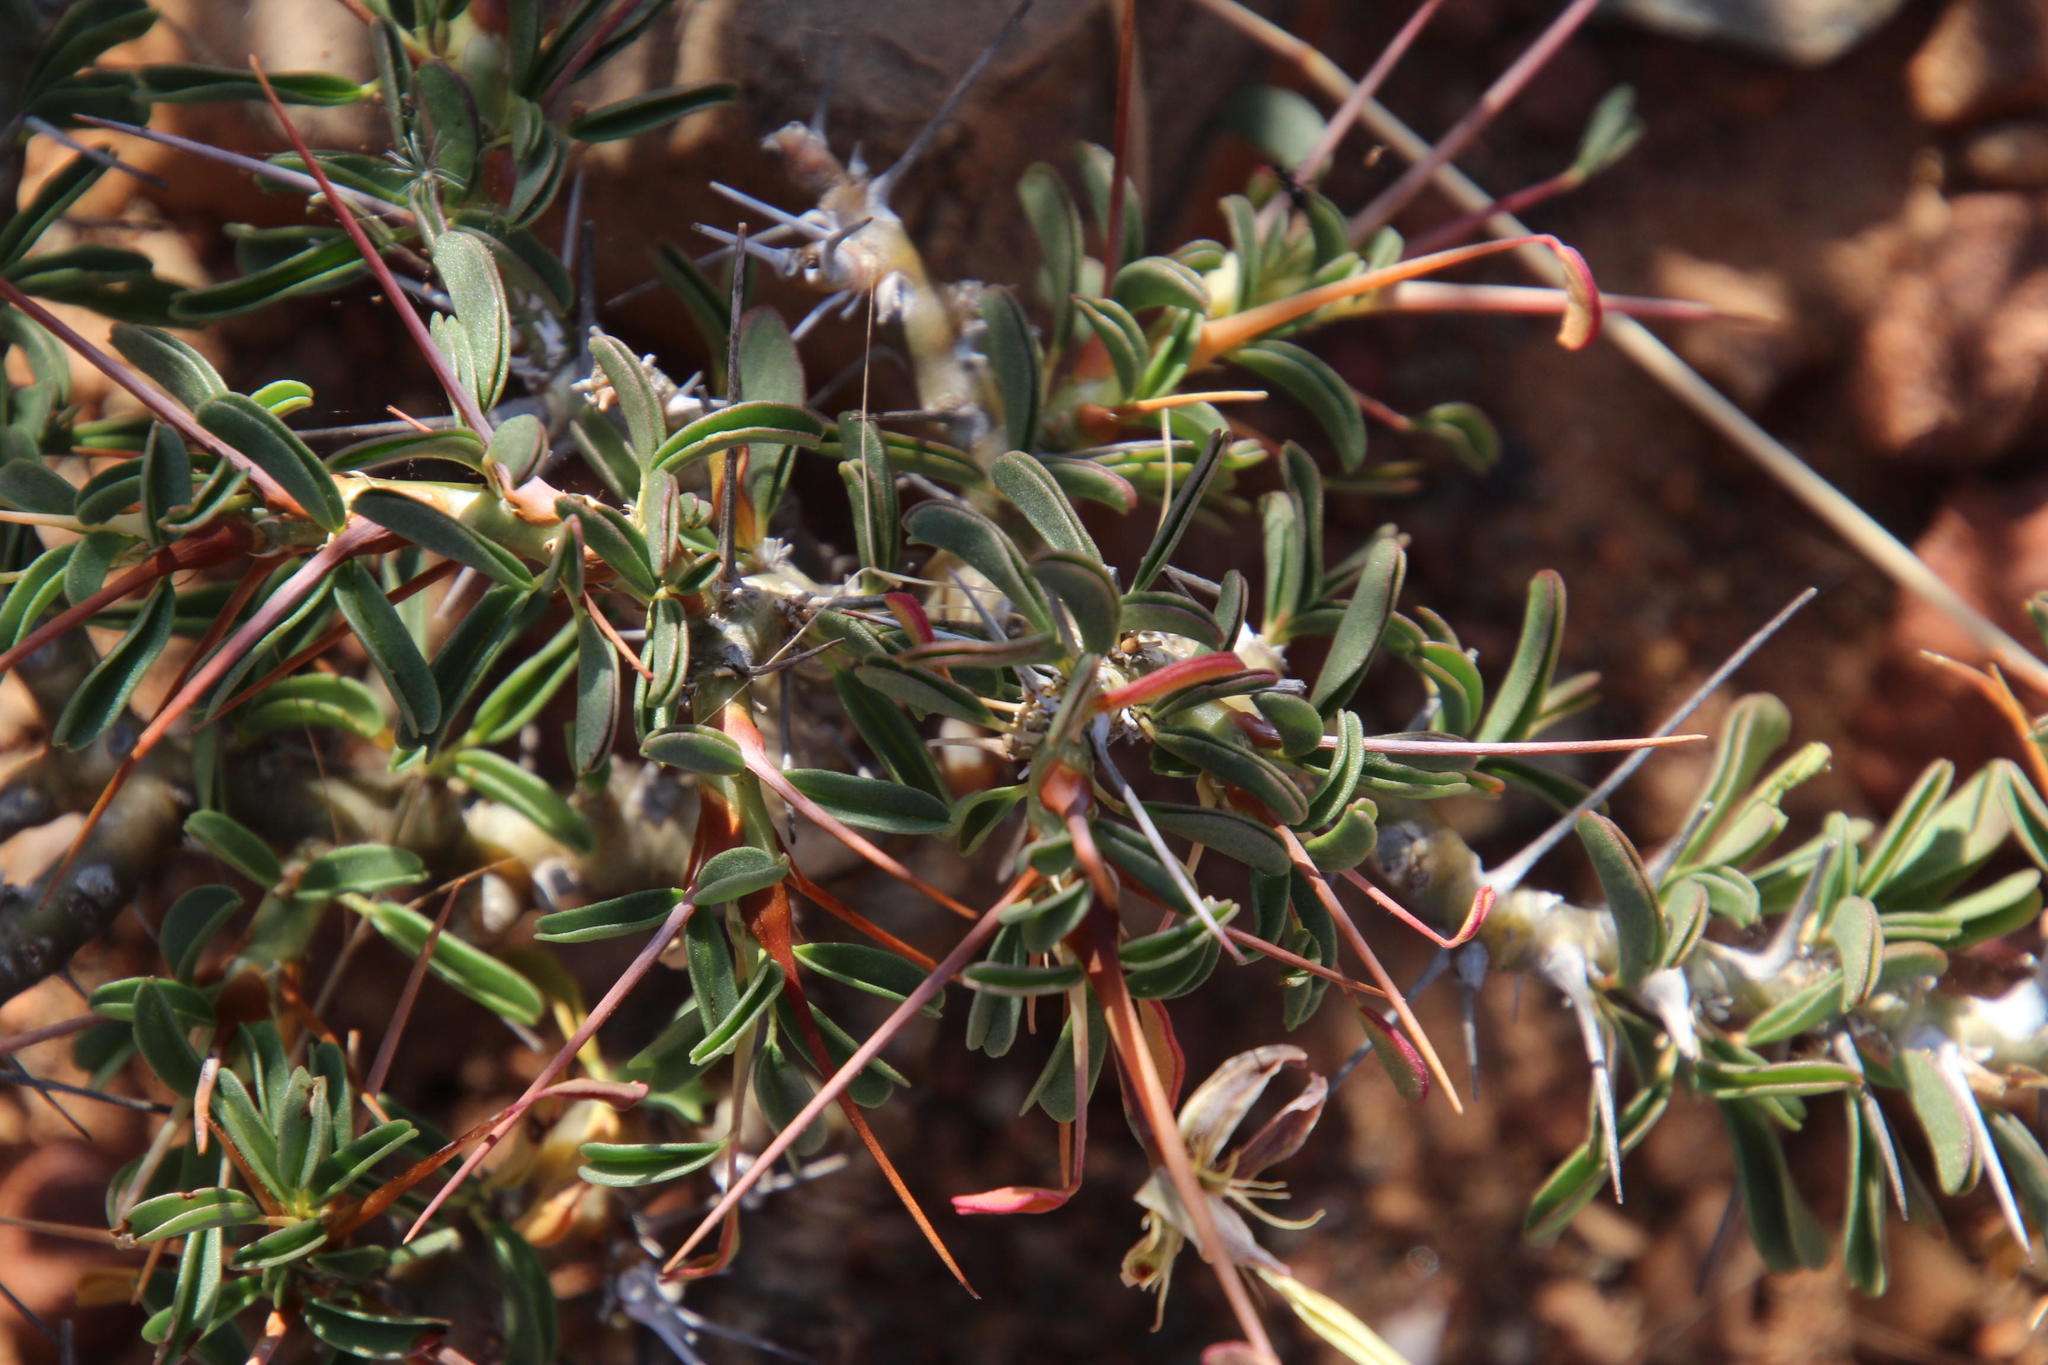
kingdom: Plantae
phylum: Tracheophyta
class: Magnoliopsida
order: Geraniales
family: Geraniaceae
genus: Monsonia
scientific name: Monsonia camdeboensis
